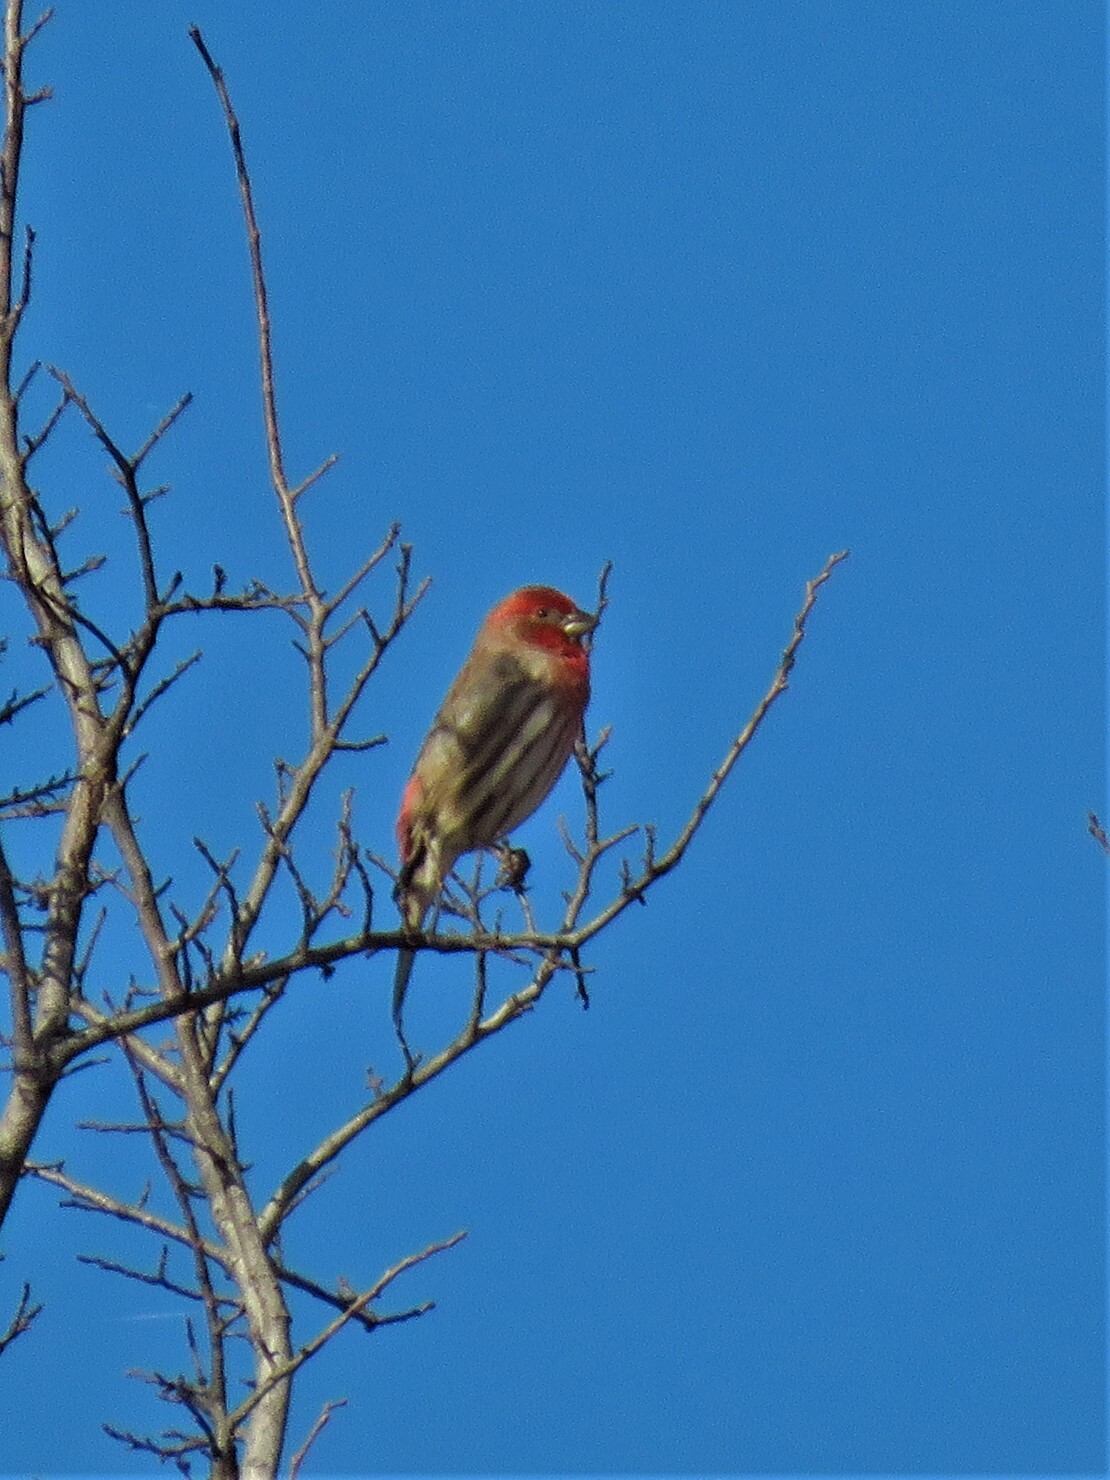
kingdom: Animalia
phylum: Chordata
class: Aves
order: Passeriformes
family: Fringillidae
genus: Haemorhous
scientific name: Haemorhous mexicanus
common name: House finch
